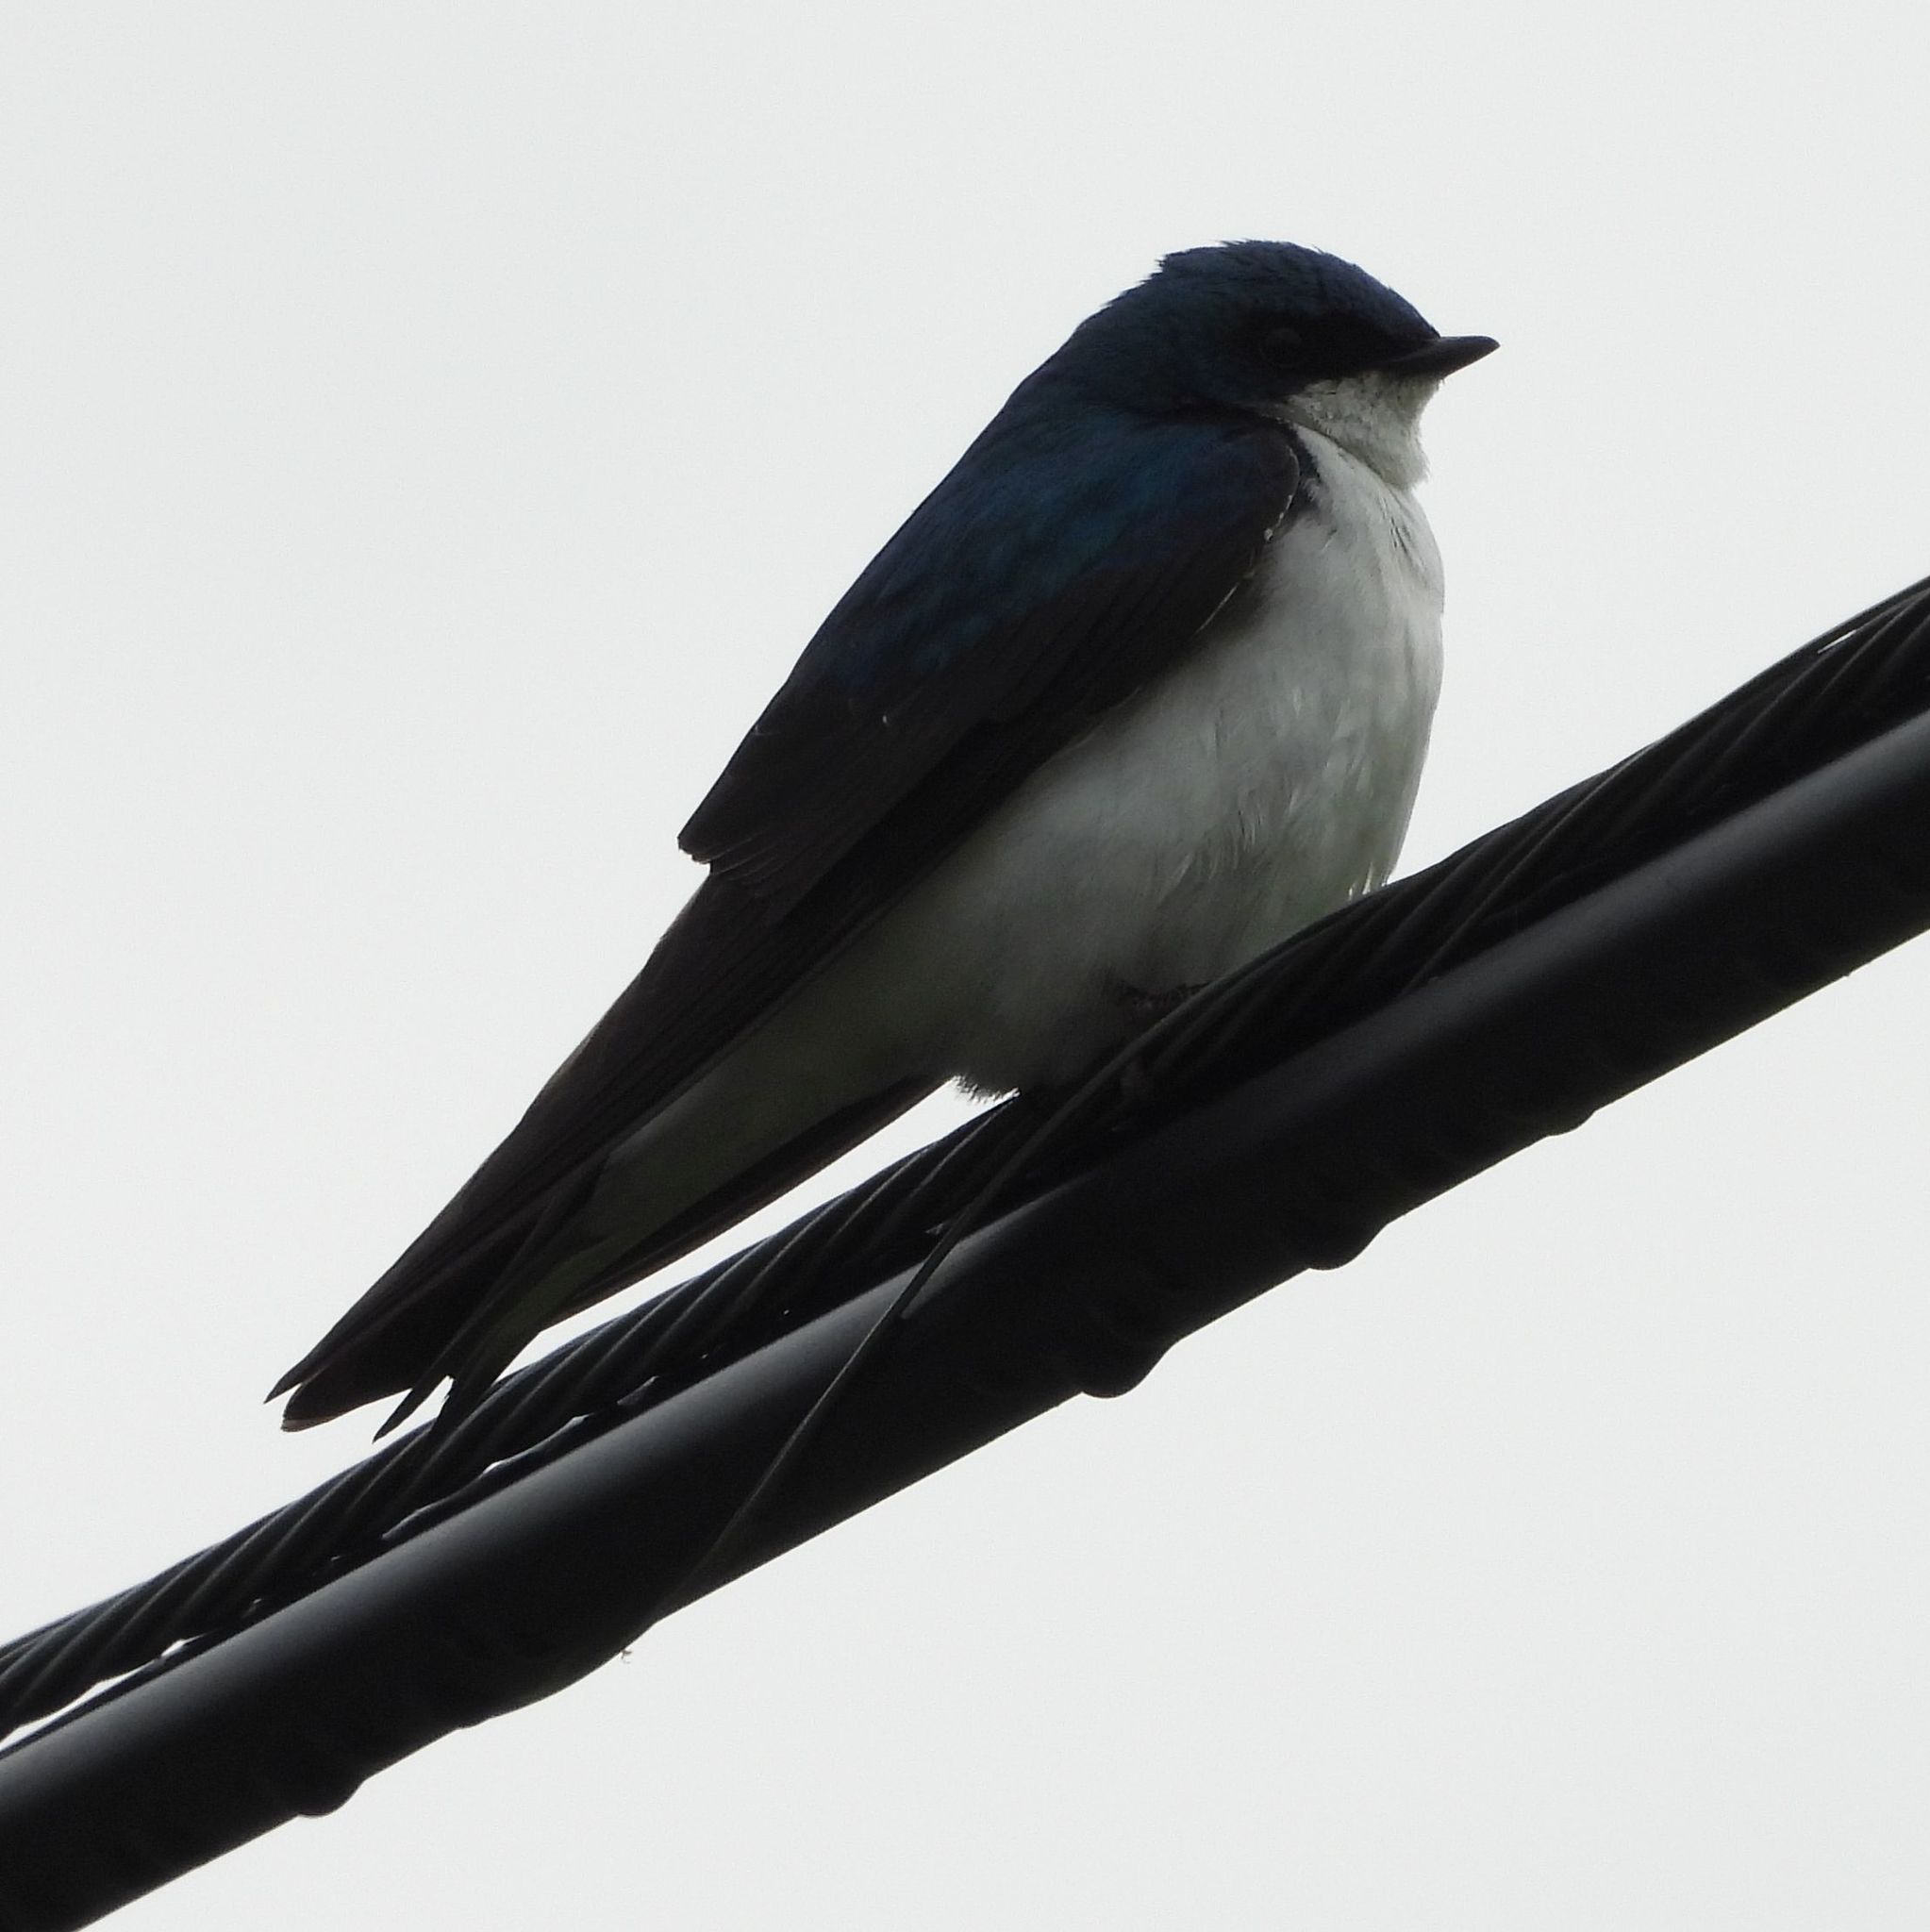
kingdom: Animalia
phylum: Chordata
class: Aves
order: Passeriformes
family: Hirundinidae
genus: Tachycineta
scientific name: Tachycineta bicolor
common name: Tree swallow
